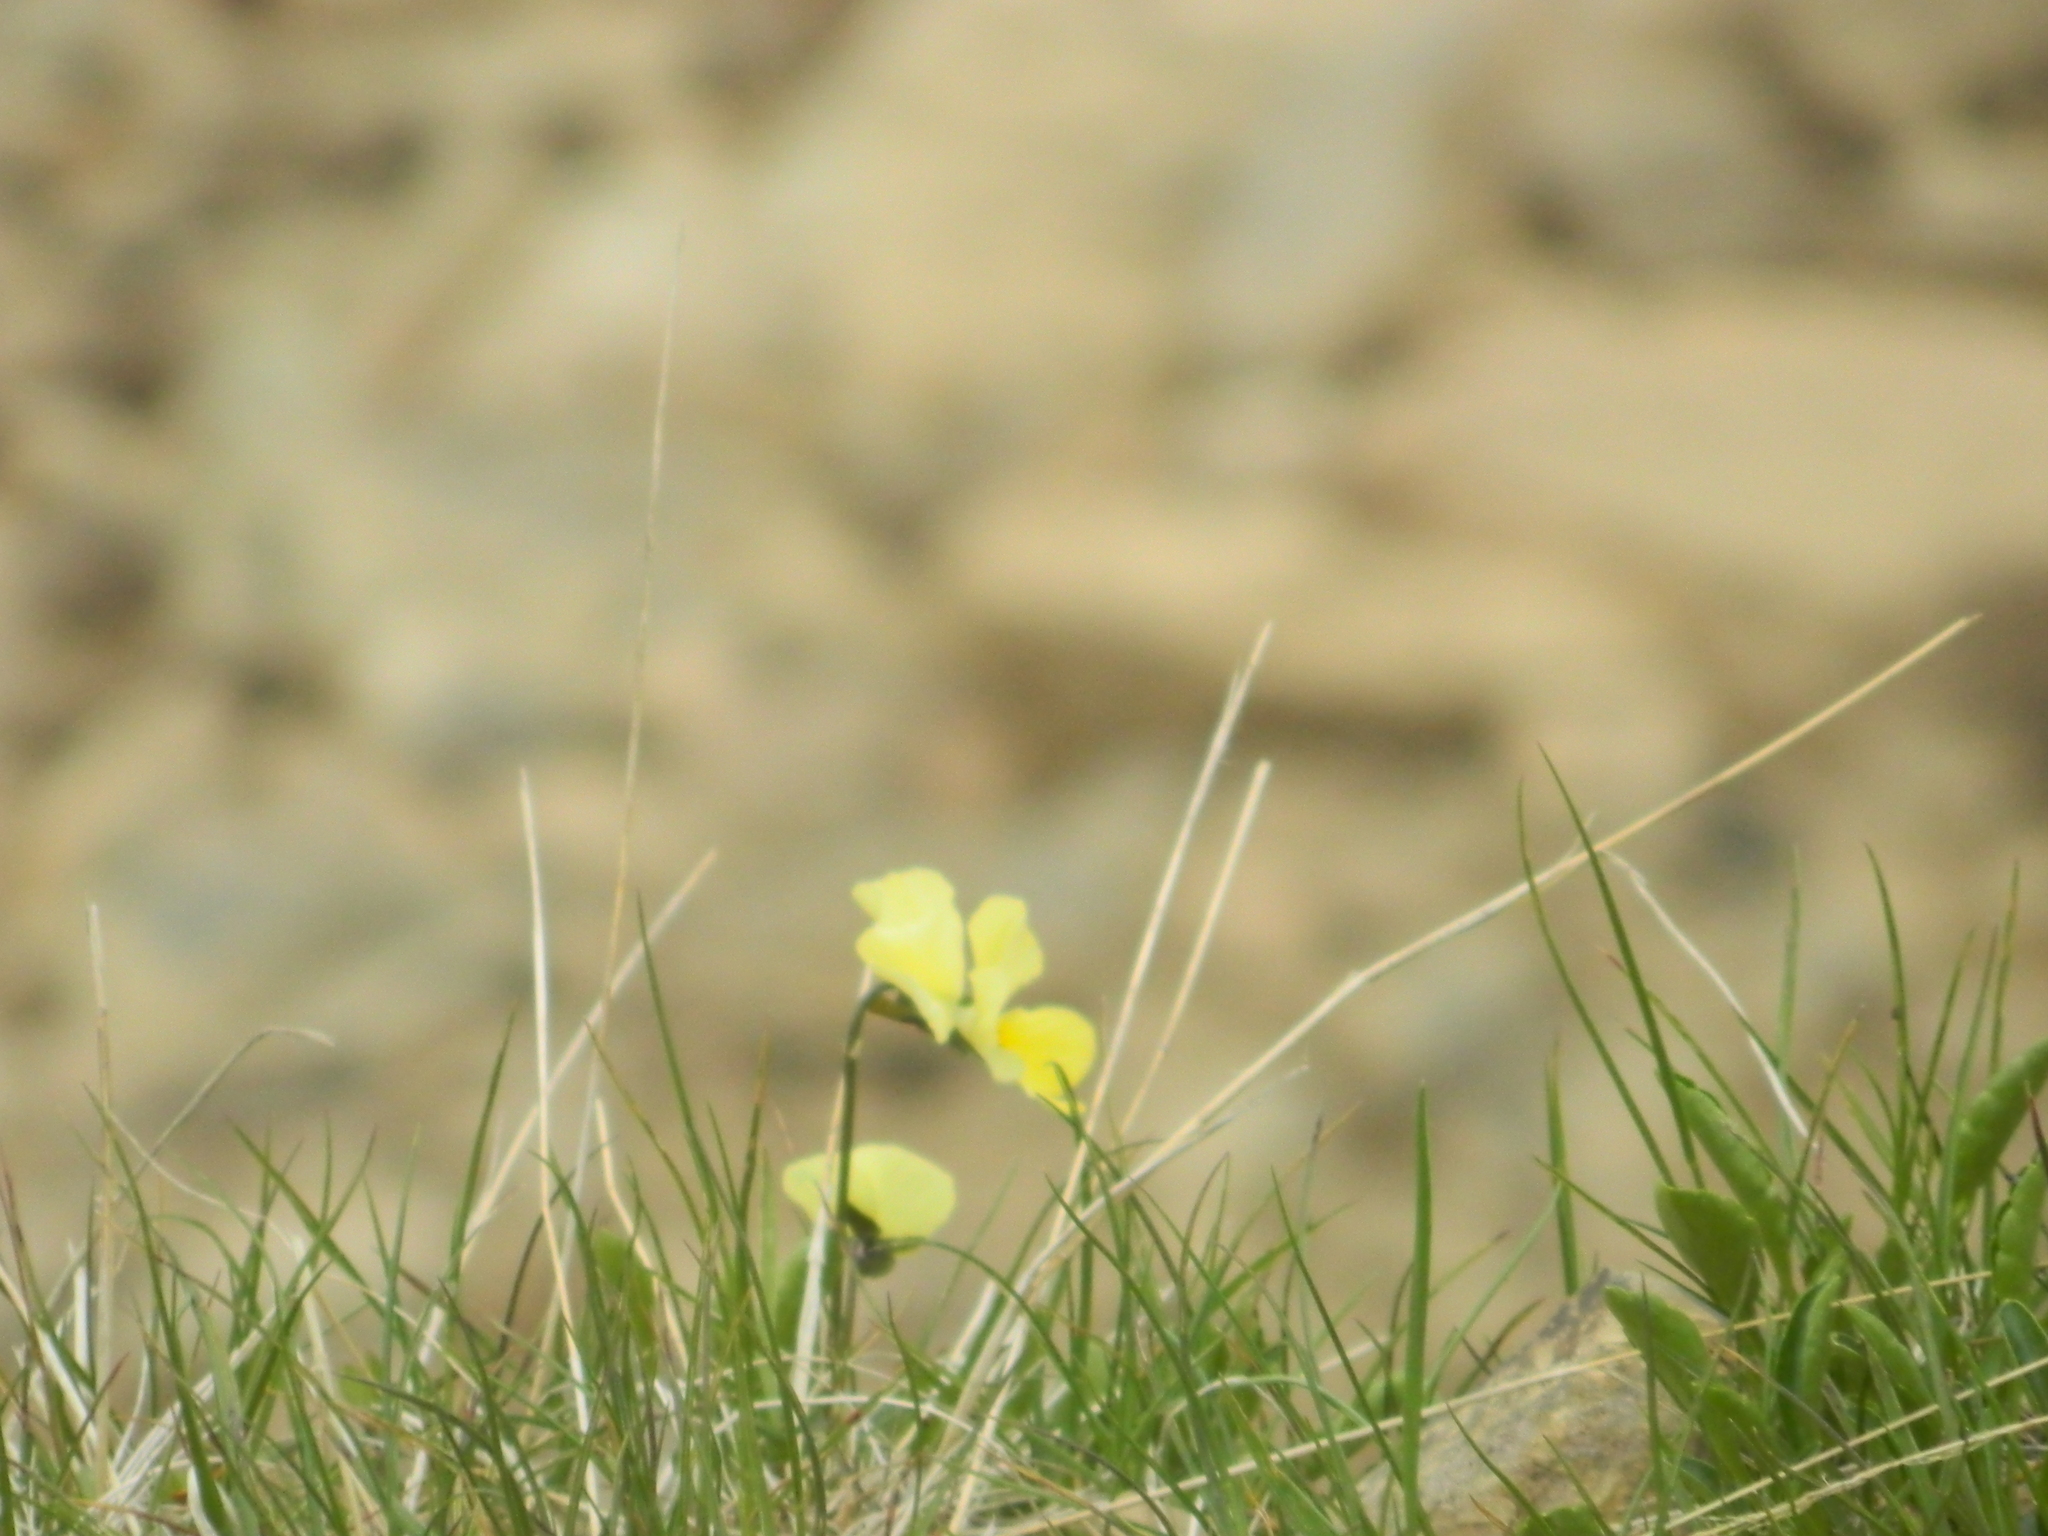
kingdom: Plantae
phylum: Tracheophyta
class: Magnoliopsida
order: Malpighiales
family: Violaceae
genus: Viola
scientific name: Viola oreades
